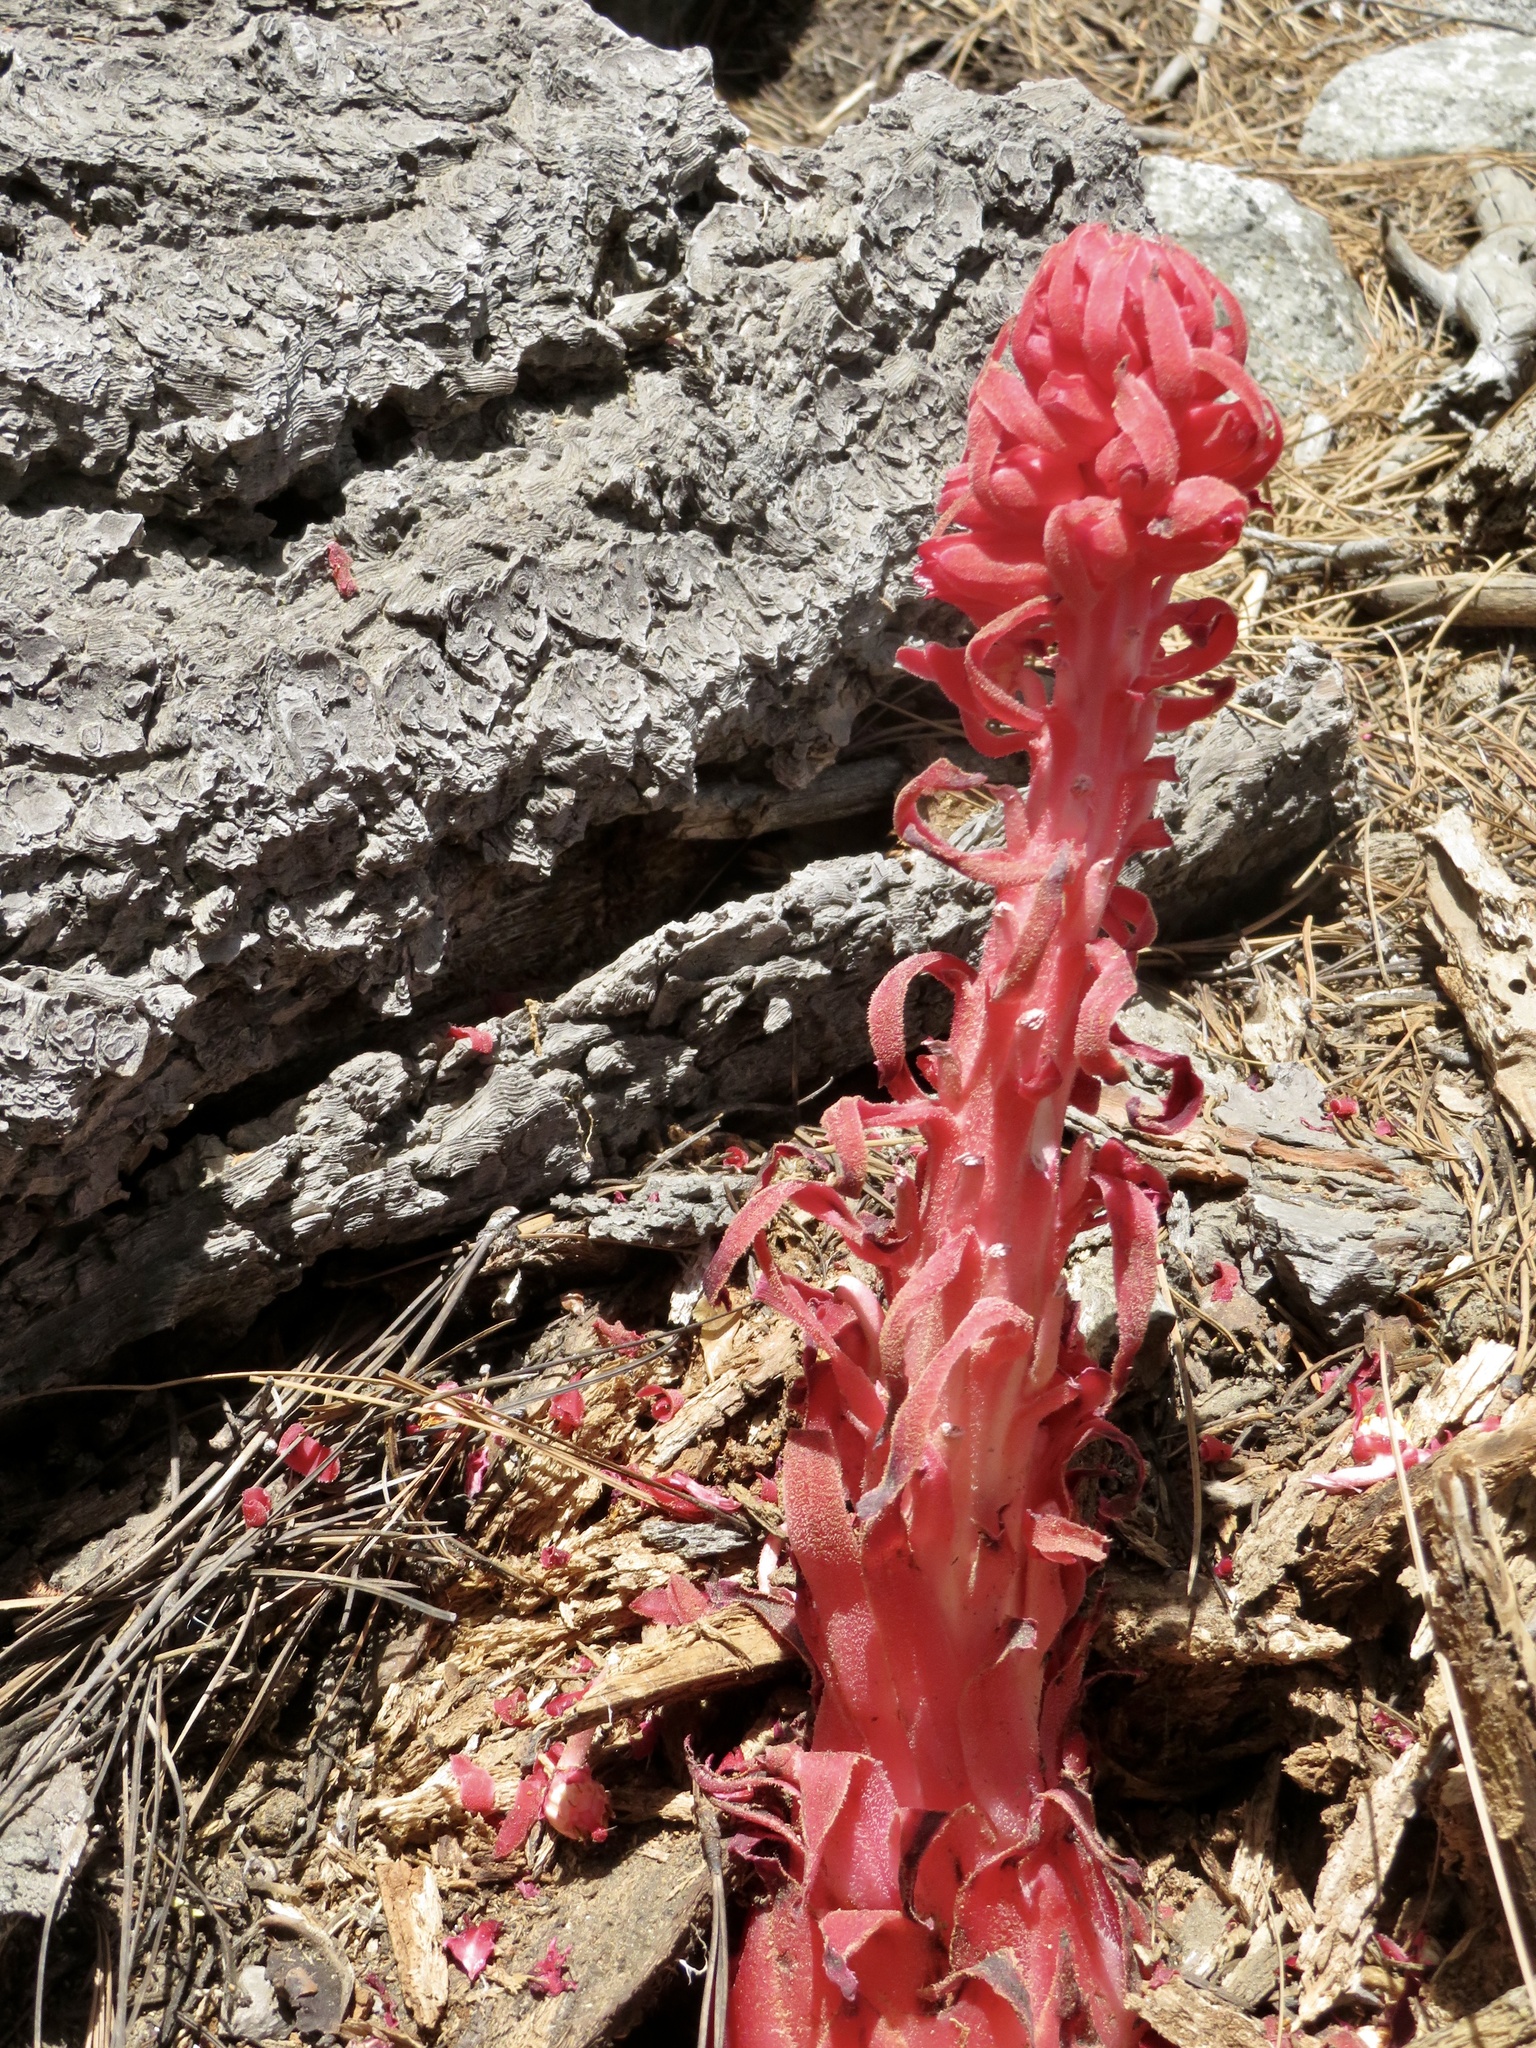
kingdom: Plantae
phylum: Tracheophyta
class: Magnoliopsida
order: Ericales
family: Ericaceae
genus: Sarcodes
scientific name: Sarcodes sanguinea
